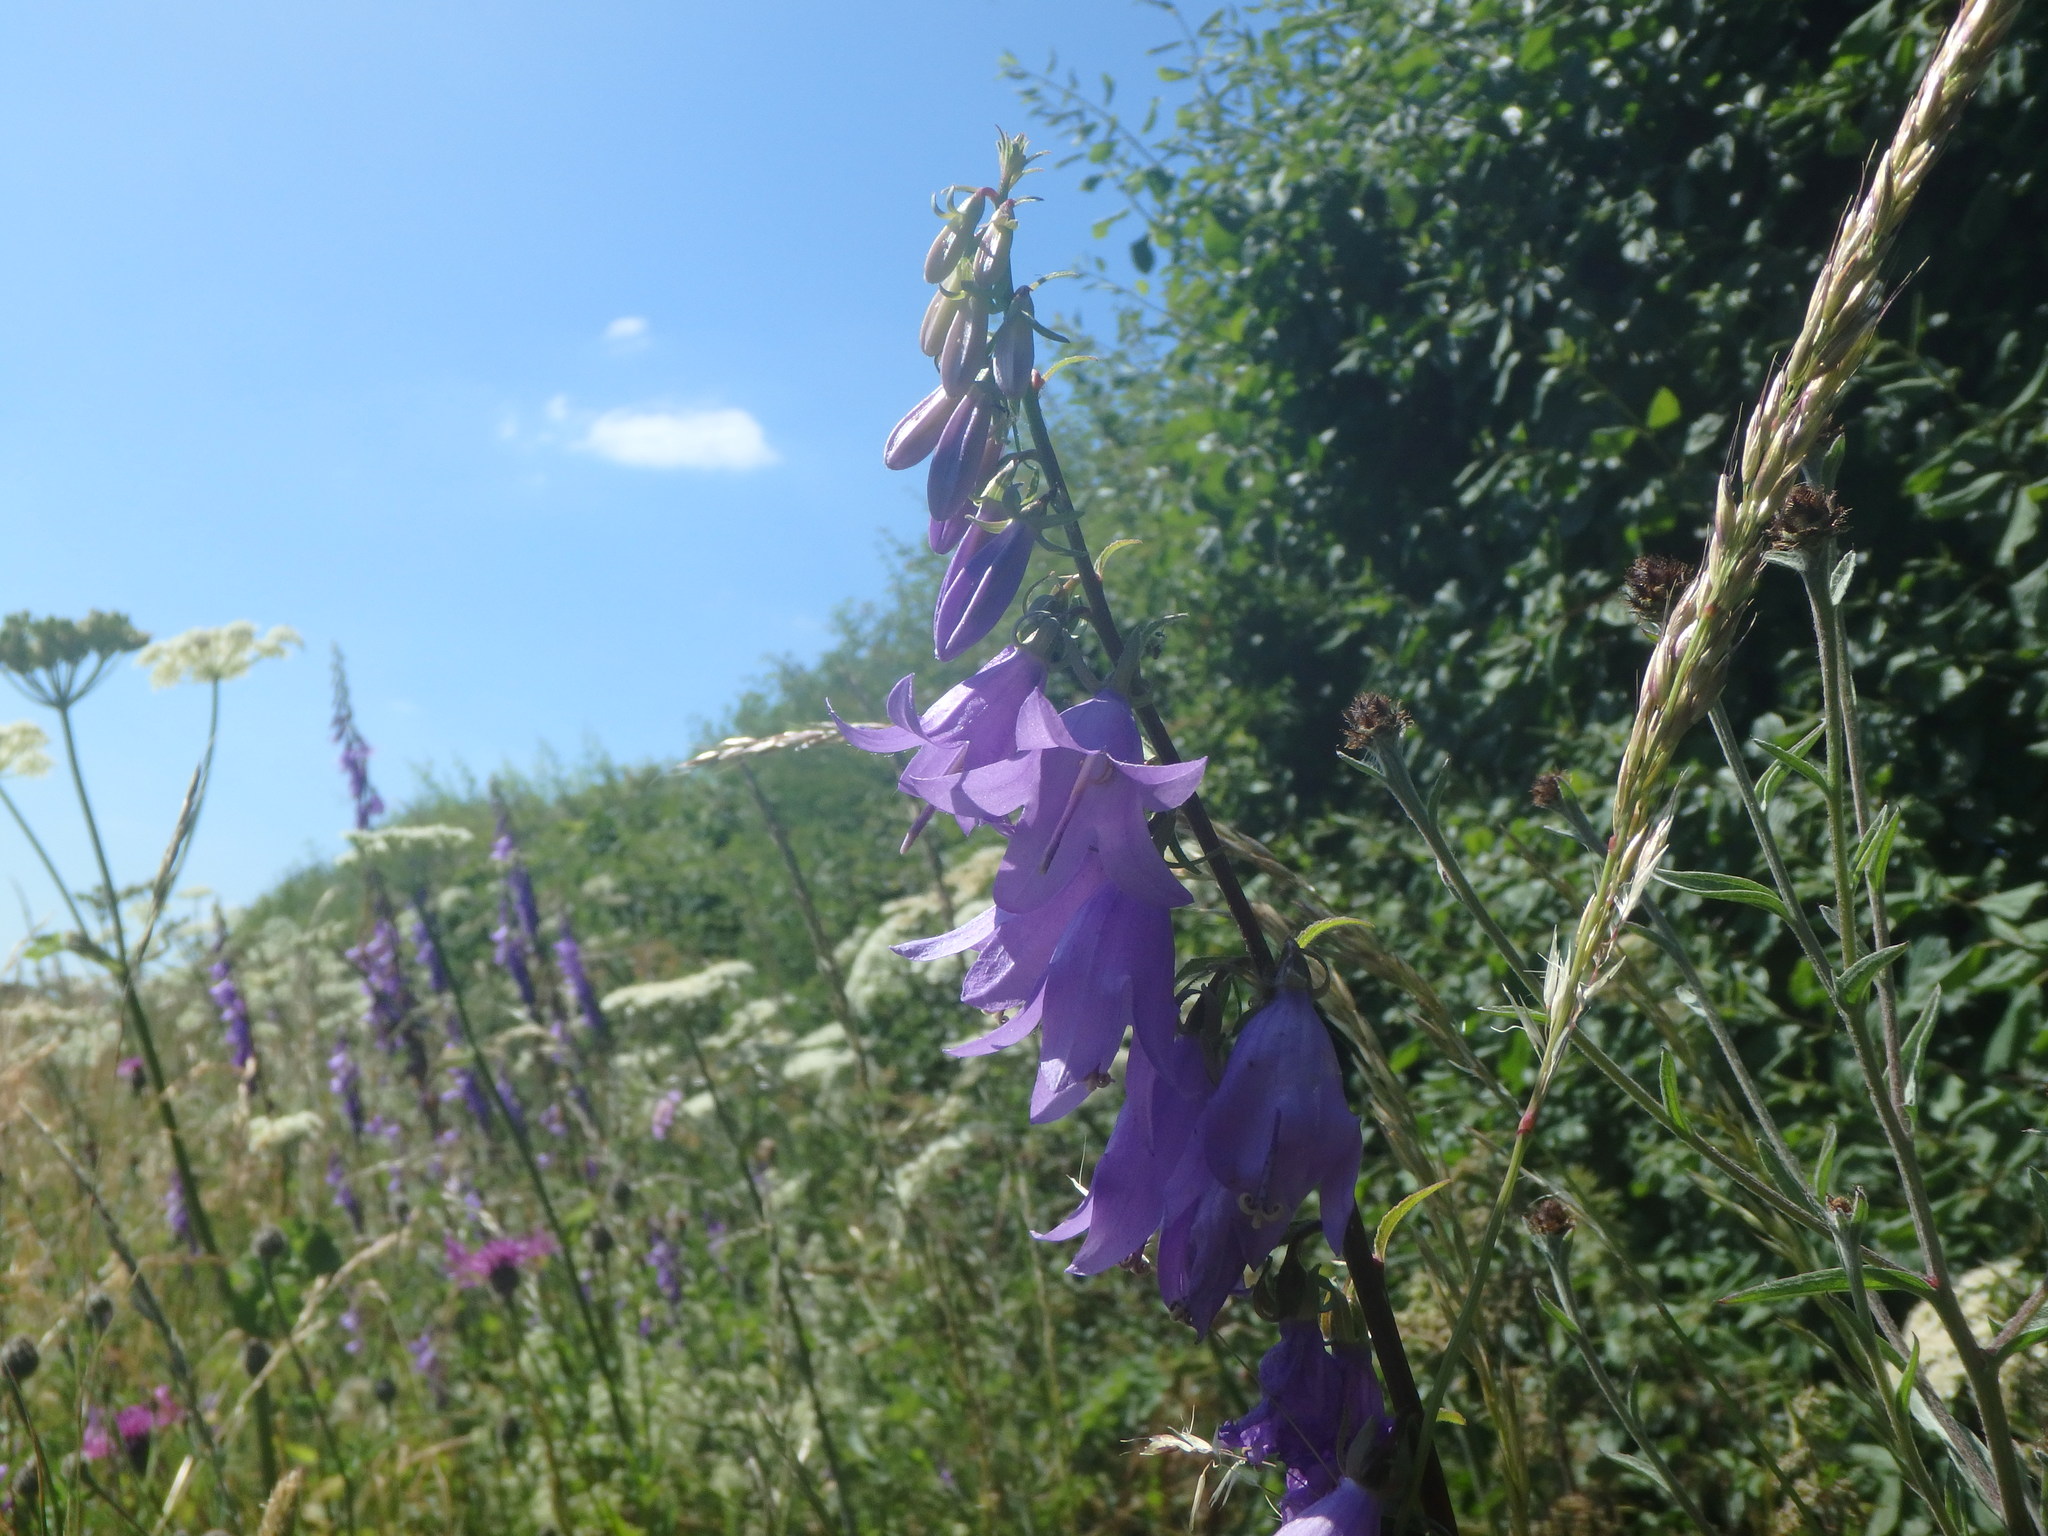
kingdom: Plantae
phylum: Tracheophyta
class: Magnoliopsida
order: Asterales
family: Campanulaceae
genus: Campanula
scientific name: Campanula rapunculoides
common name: Creeping bellflower
